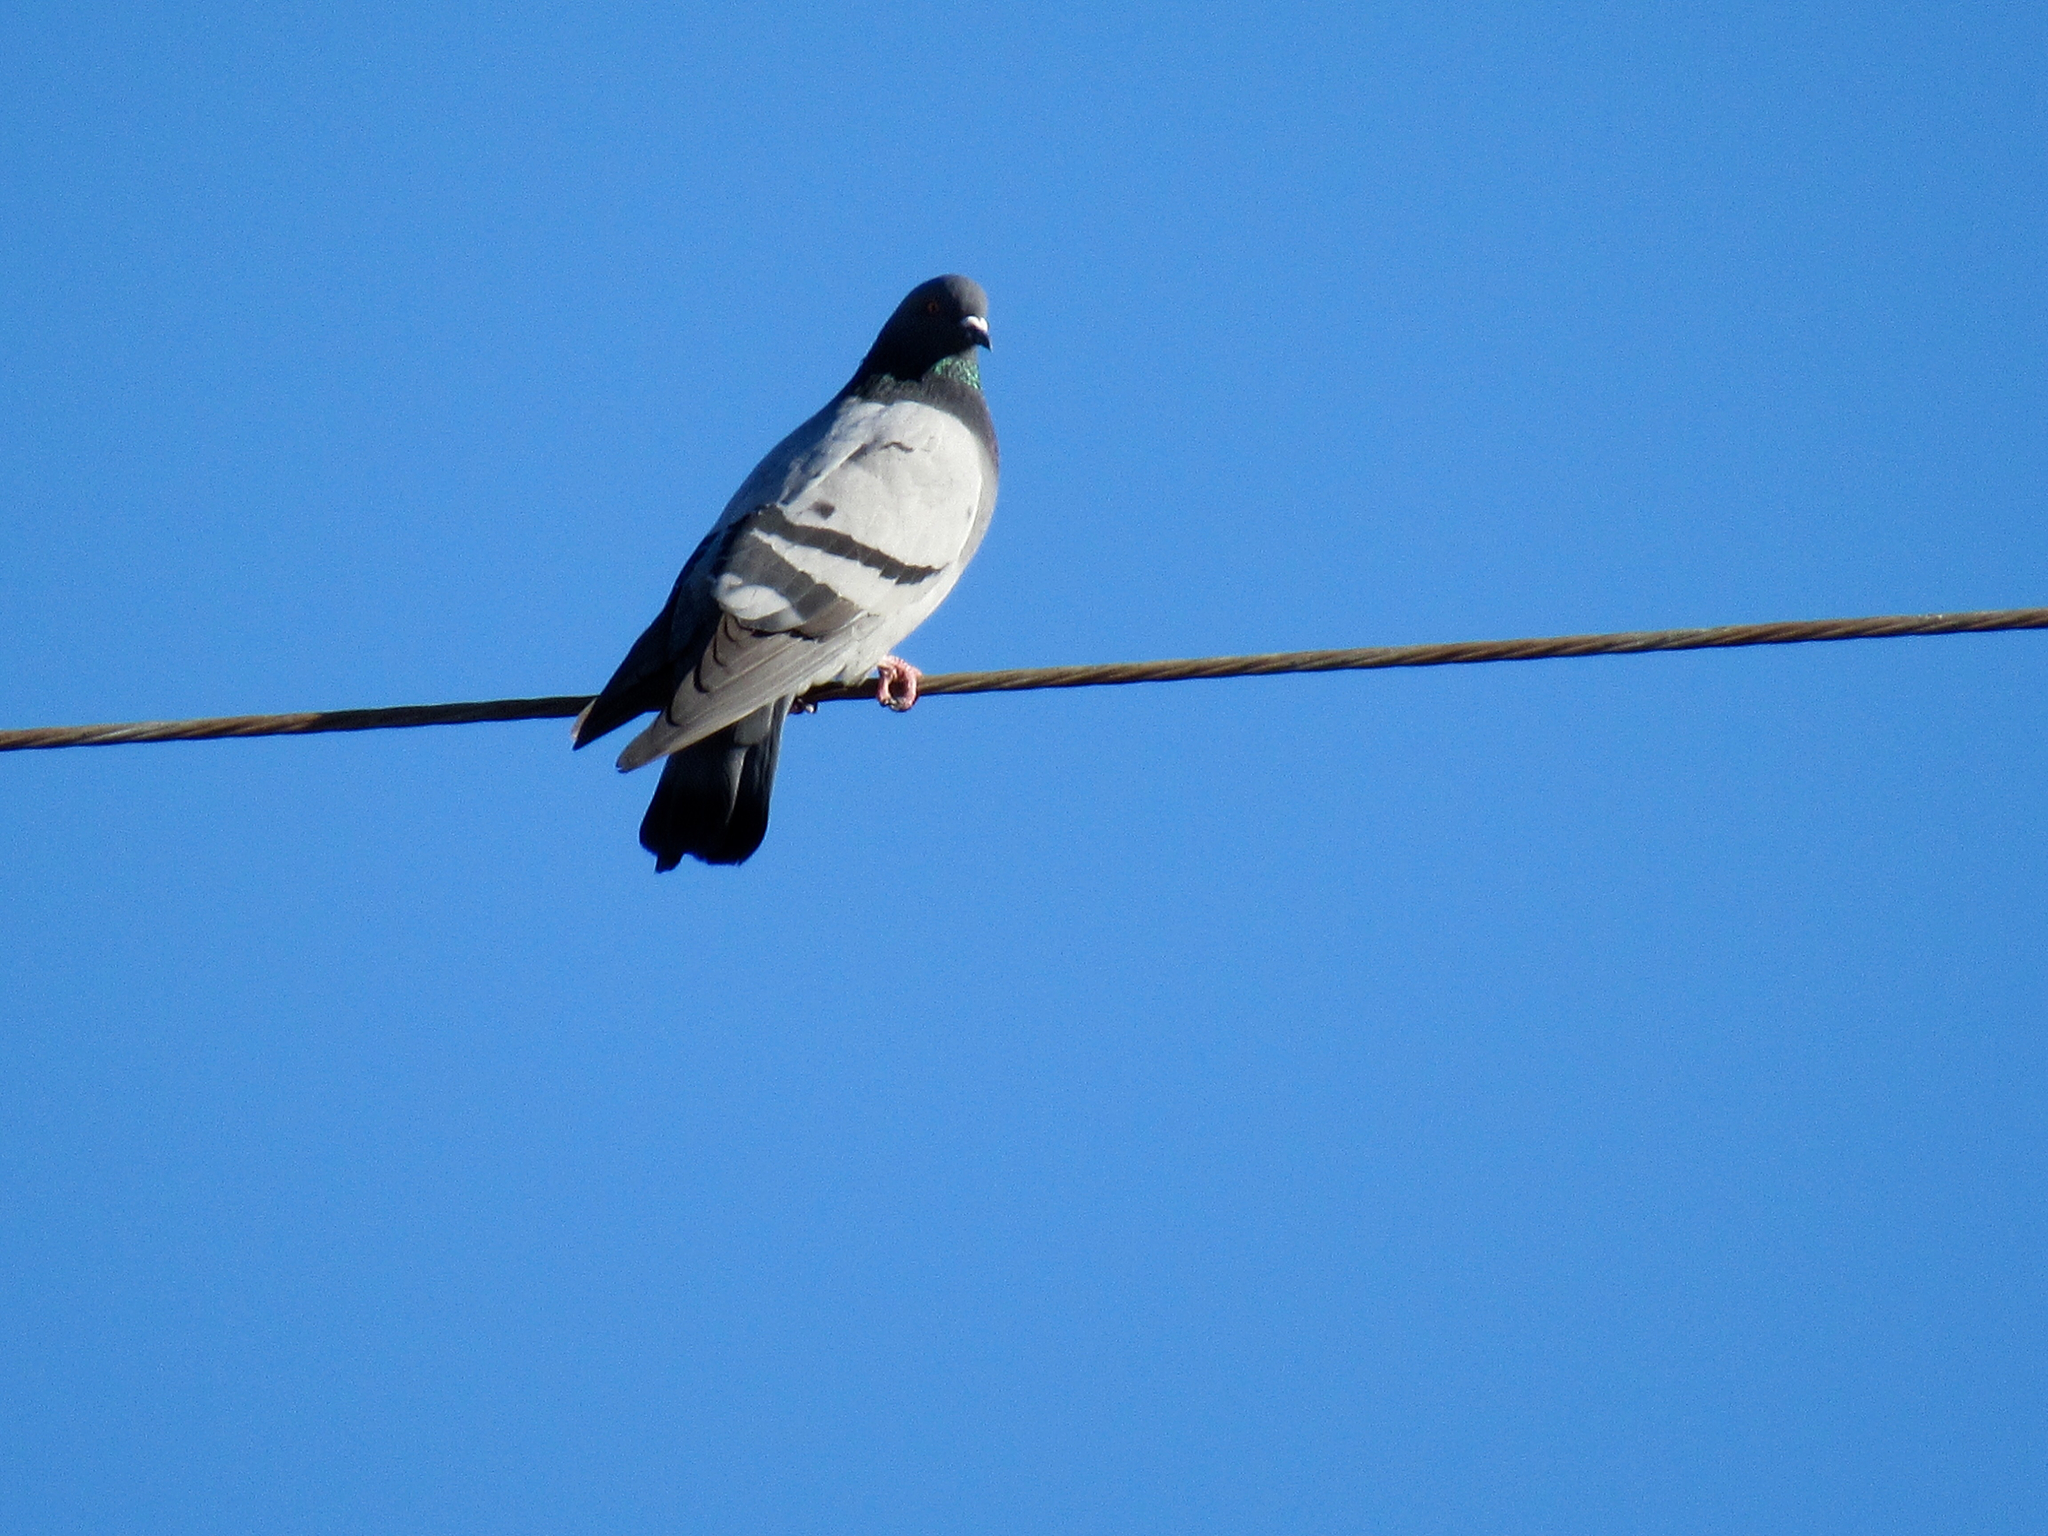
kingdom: Animalia
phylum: Chordata
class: Aves
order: Columbiformes
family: Columbidae
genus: Columba
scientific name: Columba livia
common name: Rock pigeon
